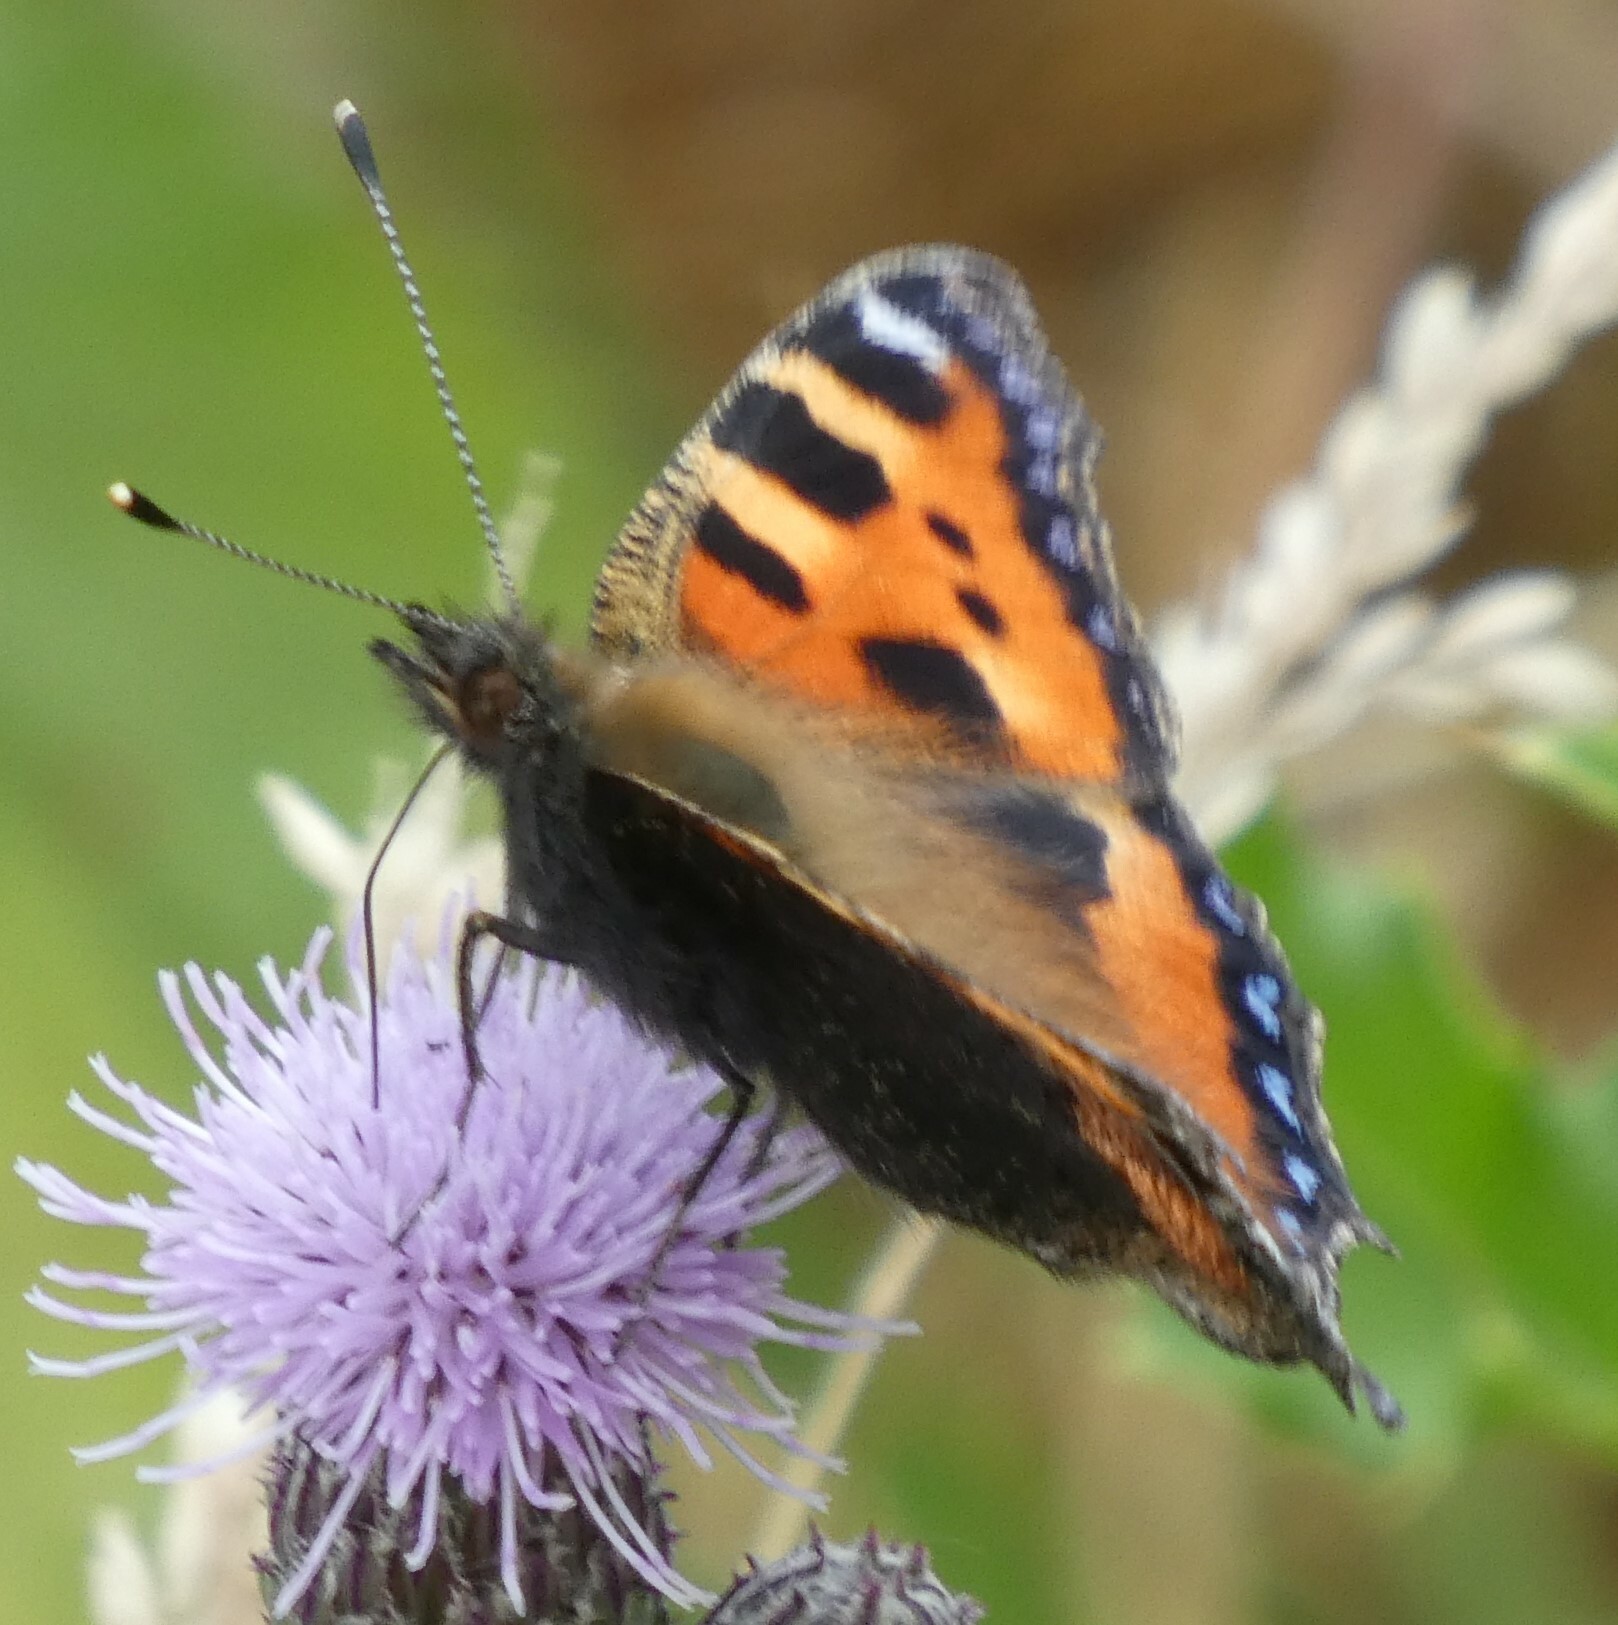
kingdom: Animalia
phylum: Arthropoda
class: Insecta
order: Lepidoptera
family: Nymphalidae
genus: Aglais
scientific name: Aglais urticae
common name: Small tortoiseshell
